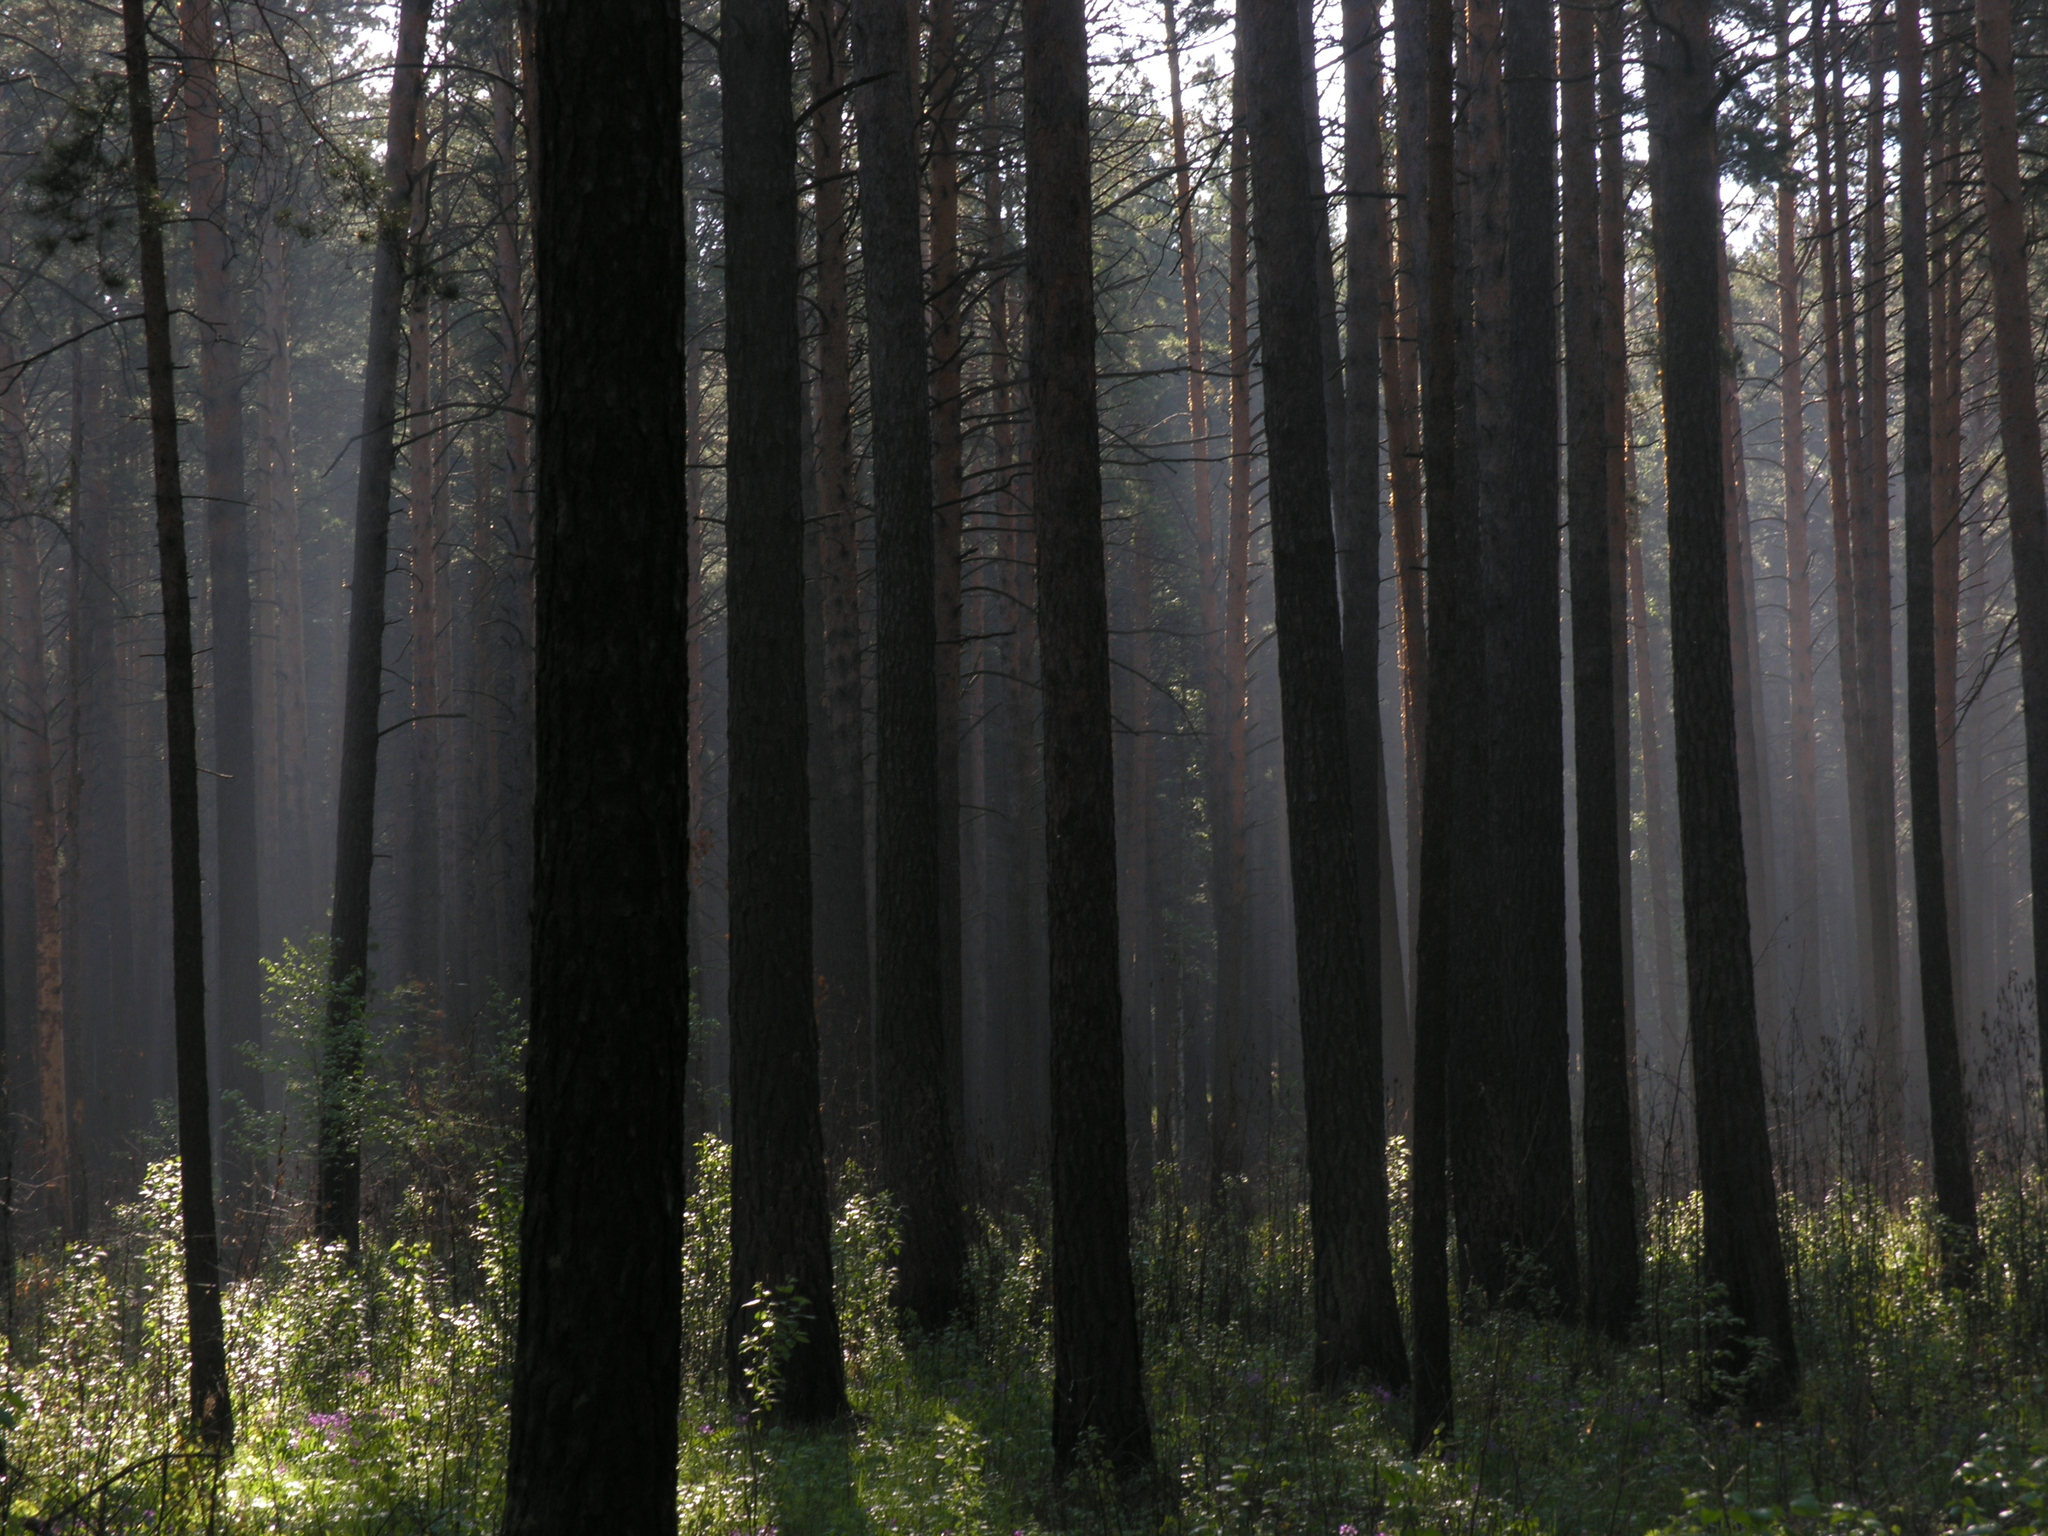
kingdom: Plantae
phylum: Tracheophyta
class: Pinopsida
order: Pinales
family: Pinaceae
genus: Pinus
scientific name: Pinus sylvestris
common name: Scots pine
